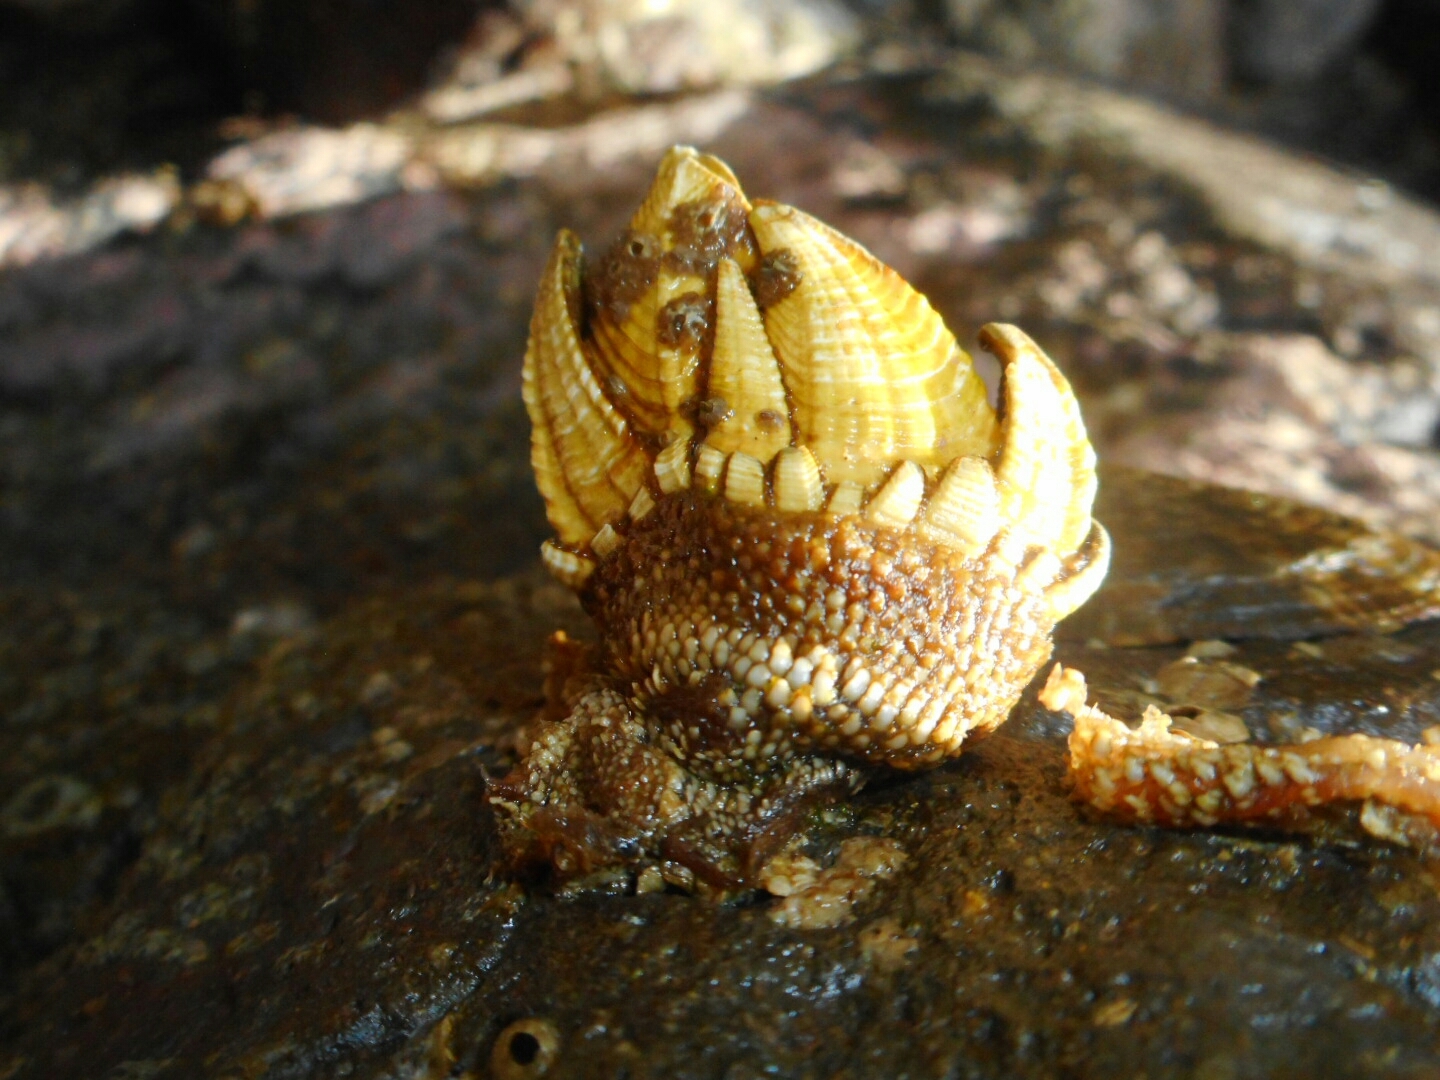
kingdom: Animalia
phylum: Arthropoda
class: Maxillopoda
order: Pedunculata
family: Pollicipedidae
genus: Capitulum
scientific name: Capitulum mitella
